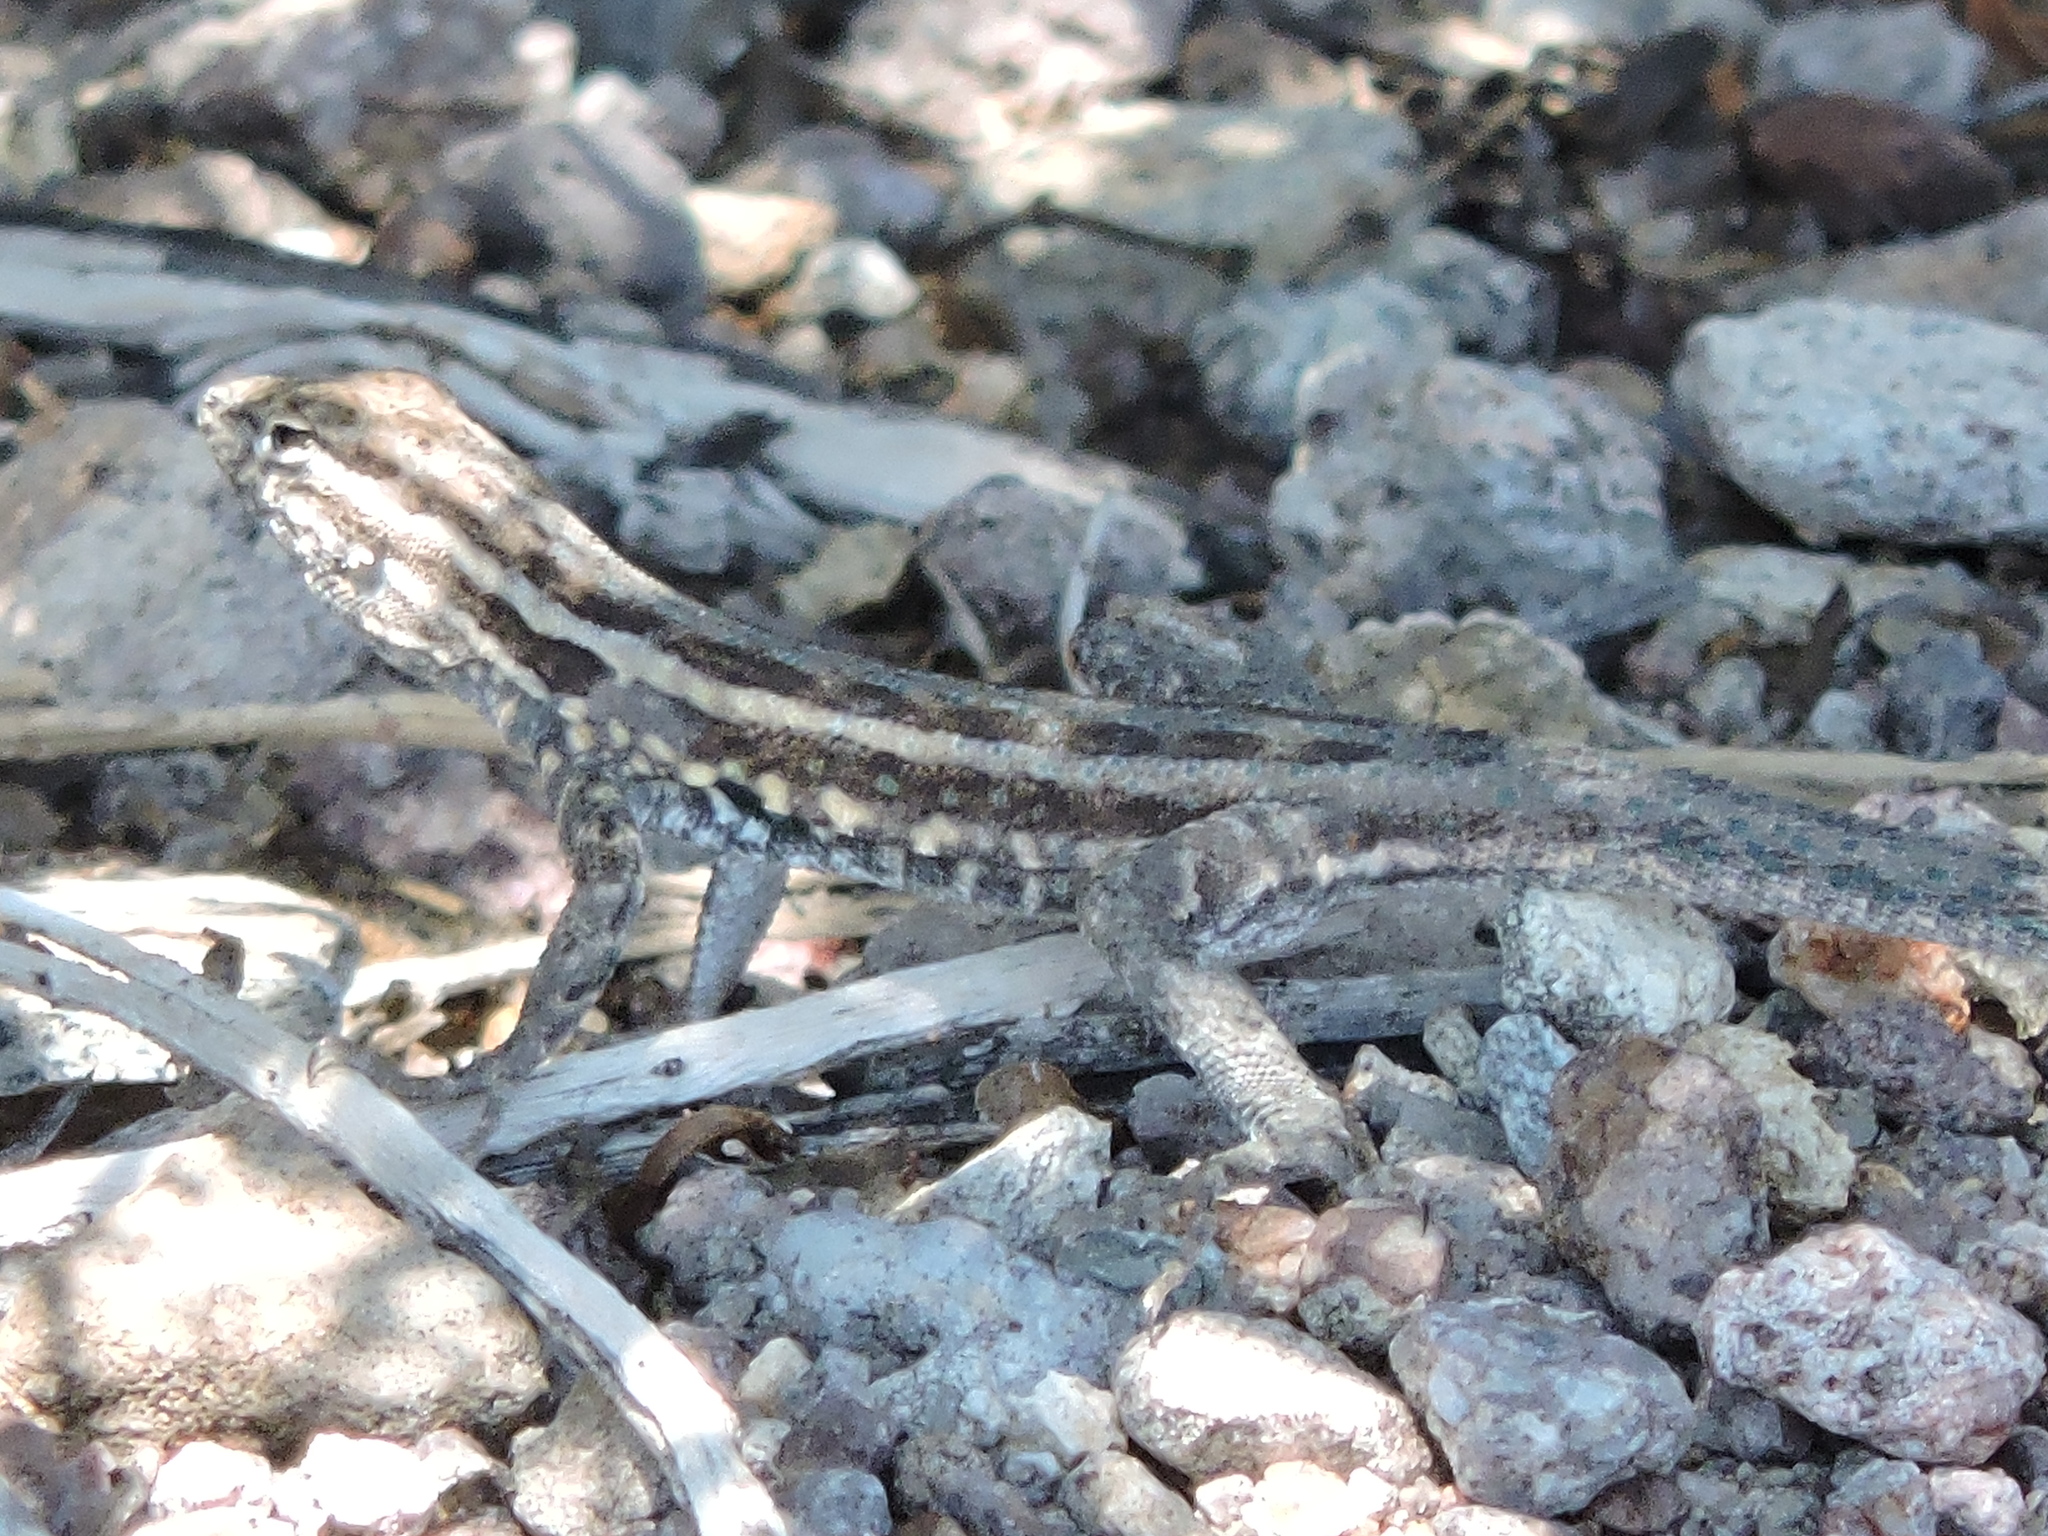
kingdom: Animalia
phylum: Chordata
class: Squamata
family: Phrynosomatidae
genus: Uta
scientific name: Uta stansburiana
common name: Side-blotched lizard
